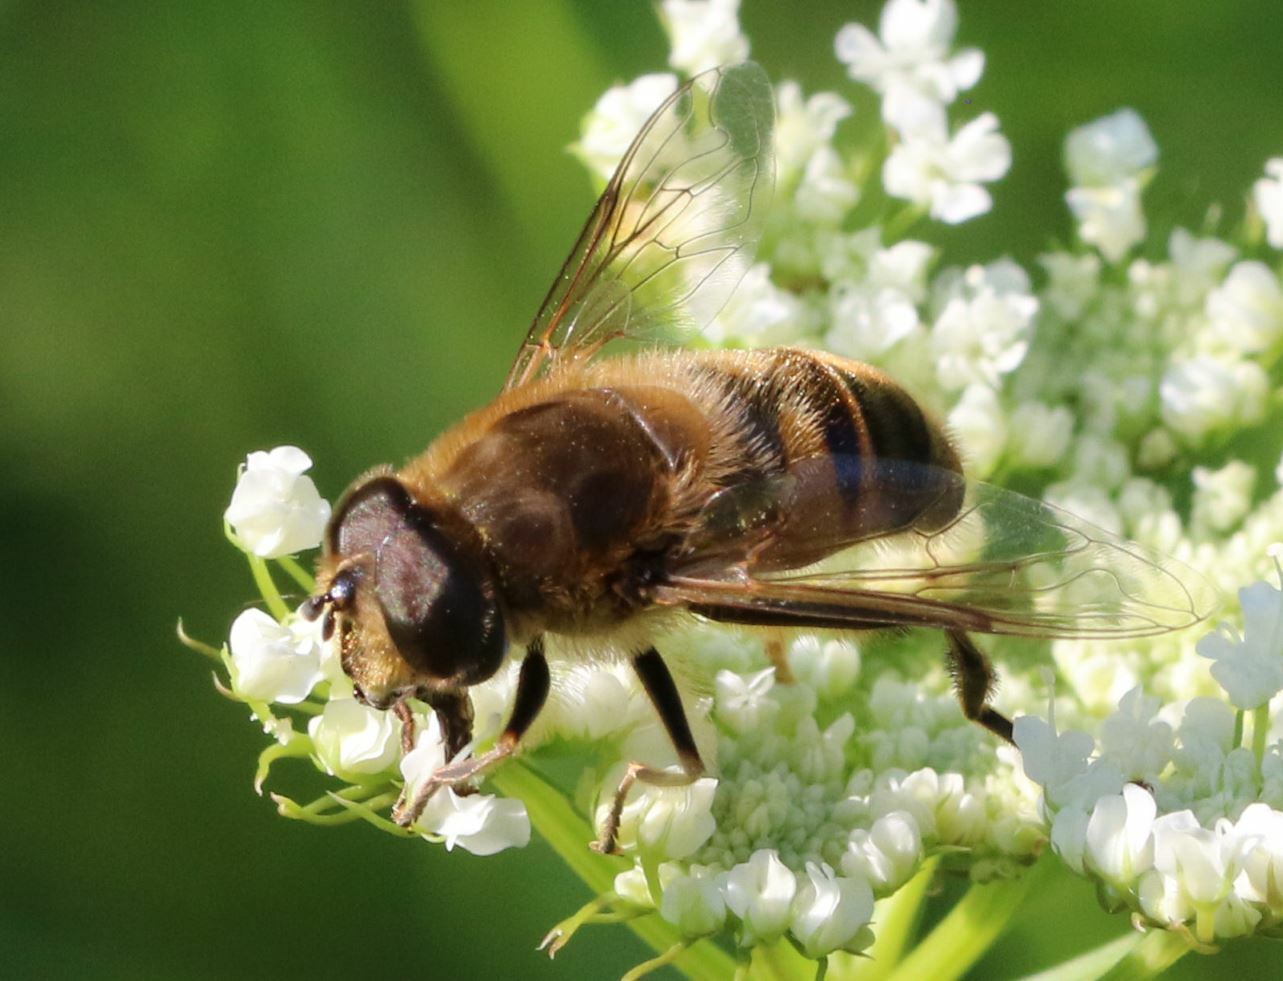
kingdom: Animalia
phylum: Arthropoda
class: Insecta
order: Diptera
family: Syrphidae
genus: Eristalis
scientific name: Eristalis tenax
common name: Drone fly
